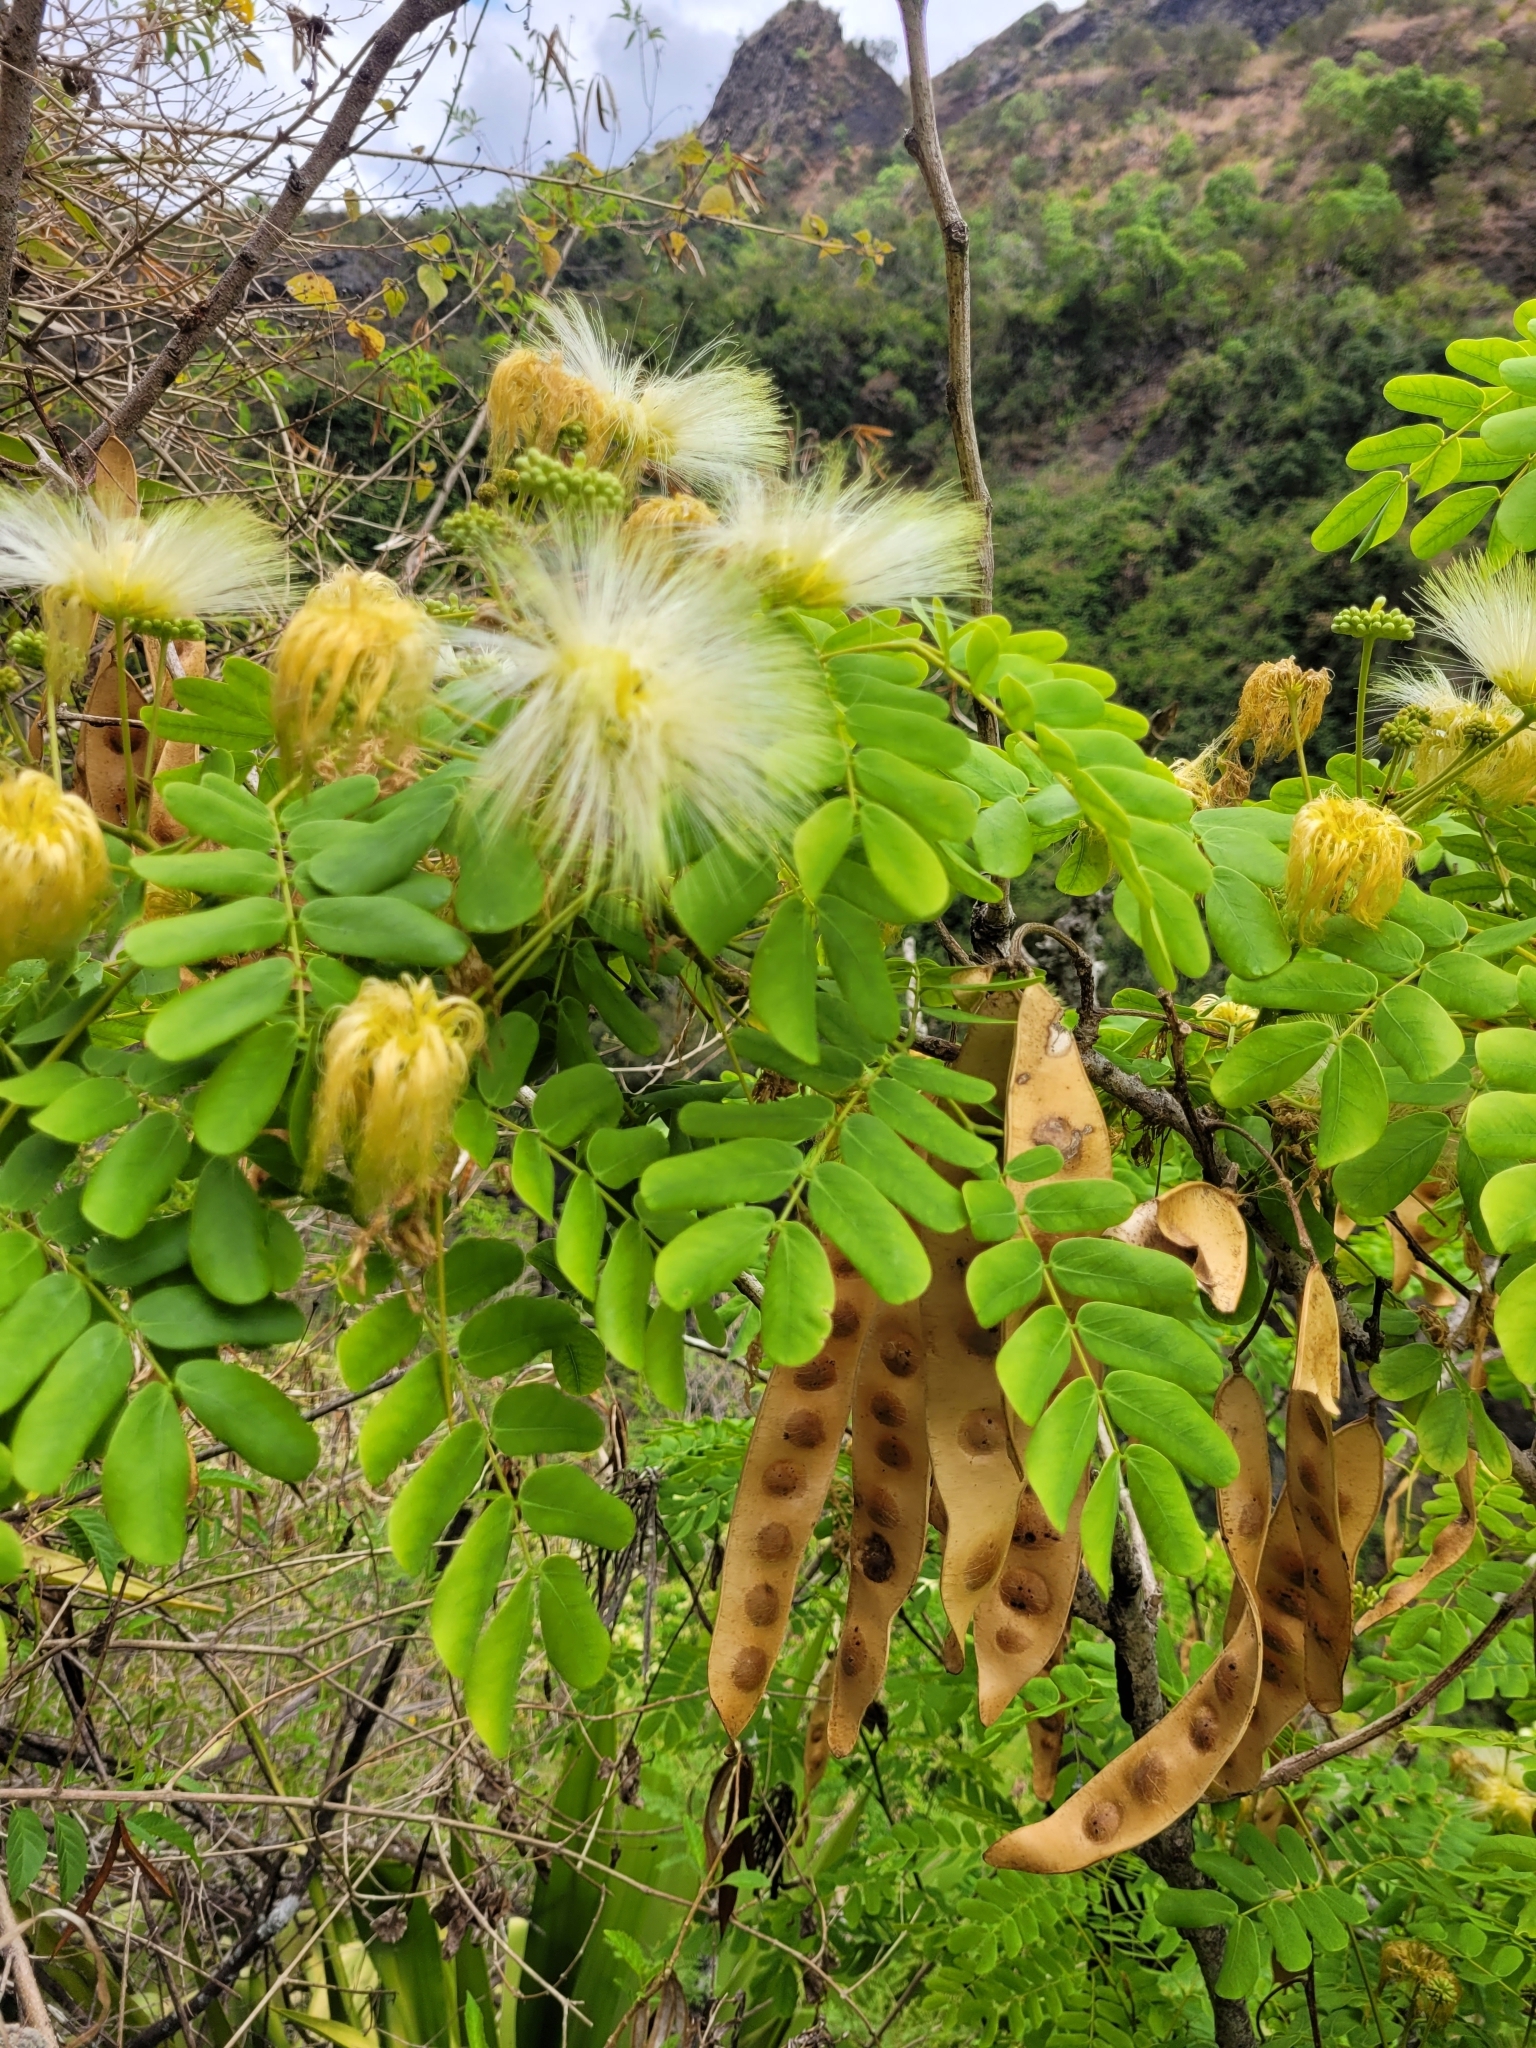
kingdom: Plantae
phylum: Tracheophyta
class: Magnoliopsida
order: Fabales
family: Fabaceae
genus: Albizia
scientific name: Albizia lebbeck
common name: Woman's tongue
